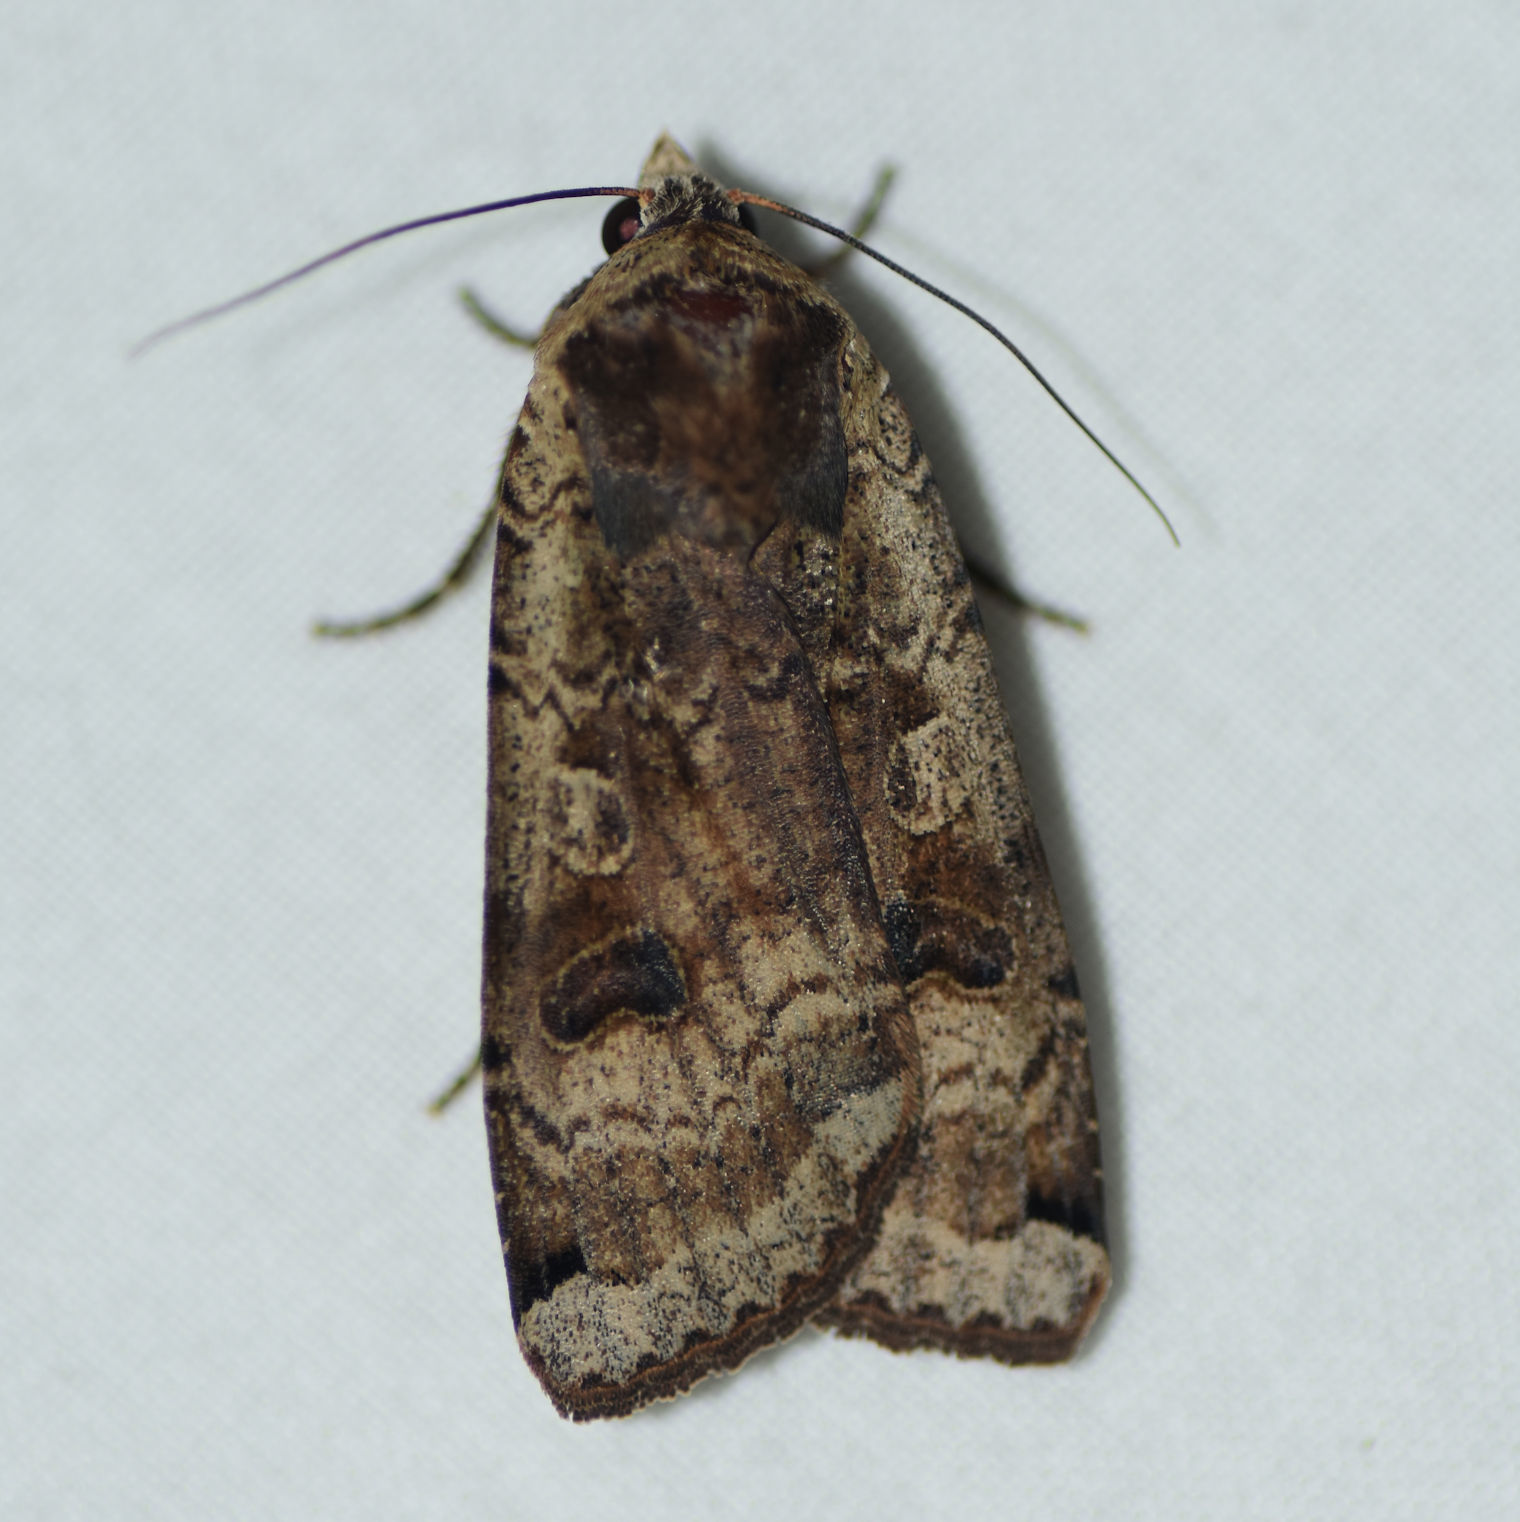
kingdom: Animalia
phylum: Arthropoda
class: Insecta
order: Lepidoptera
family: Noctuidae
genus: Noctua
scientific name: Noctua pronuba
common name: Large yellow underwing
